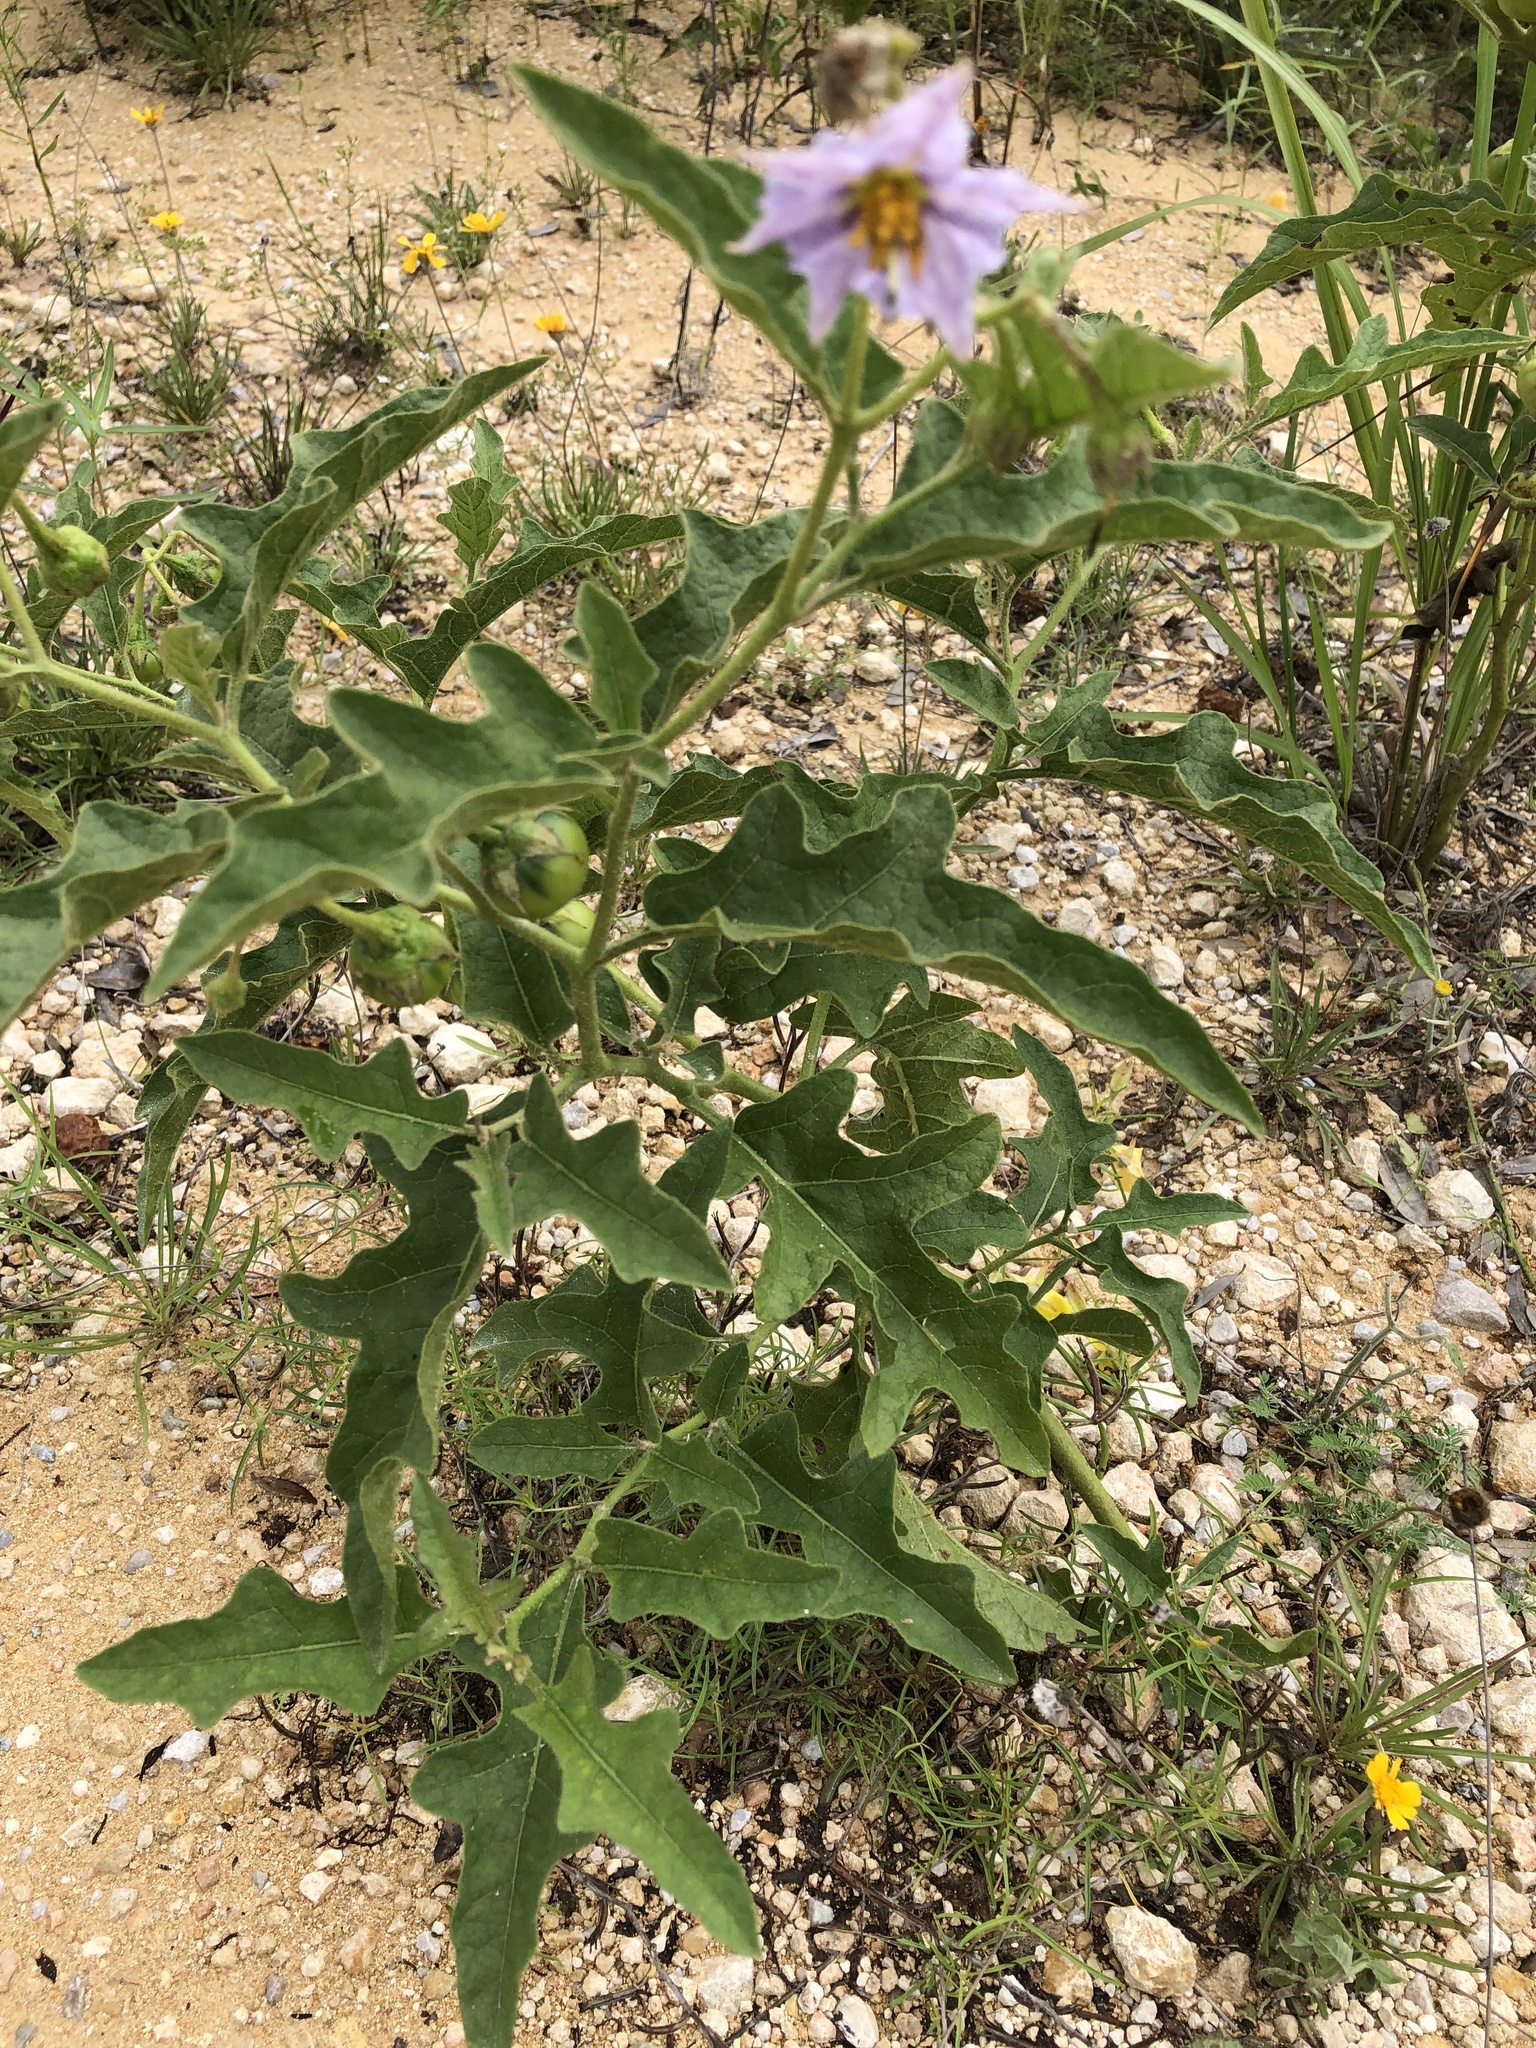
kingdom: Plantae
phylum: Tracheophyta
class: Magnoliopsida
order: Solanales
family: Solanaceae
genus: Solanum
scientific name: Solanum dimidiatum
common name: Carolina horse-nettle
